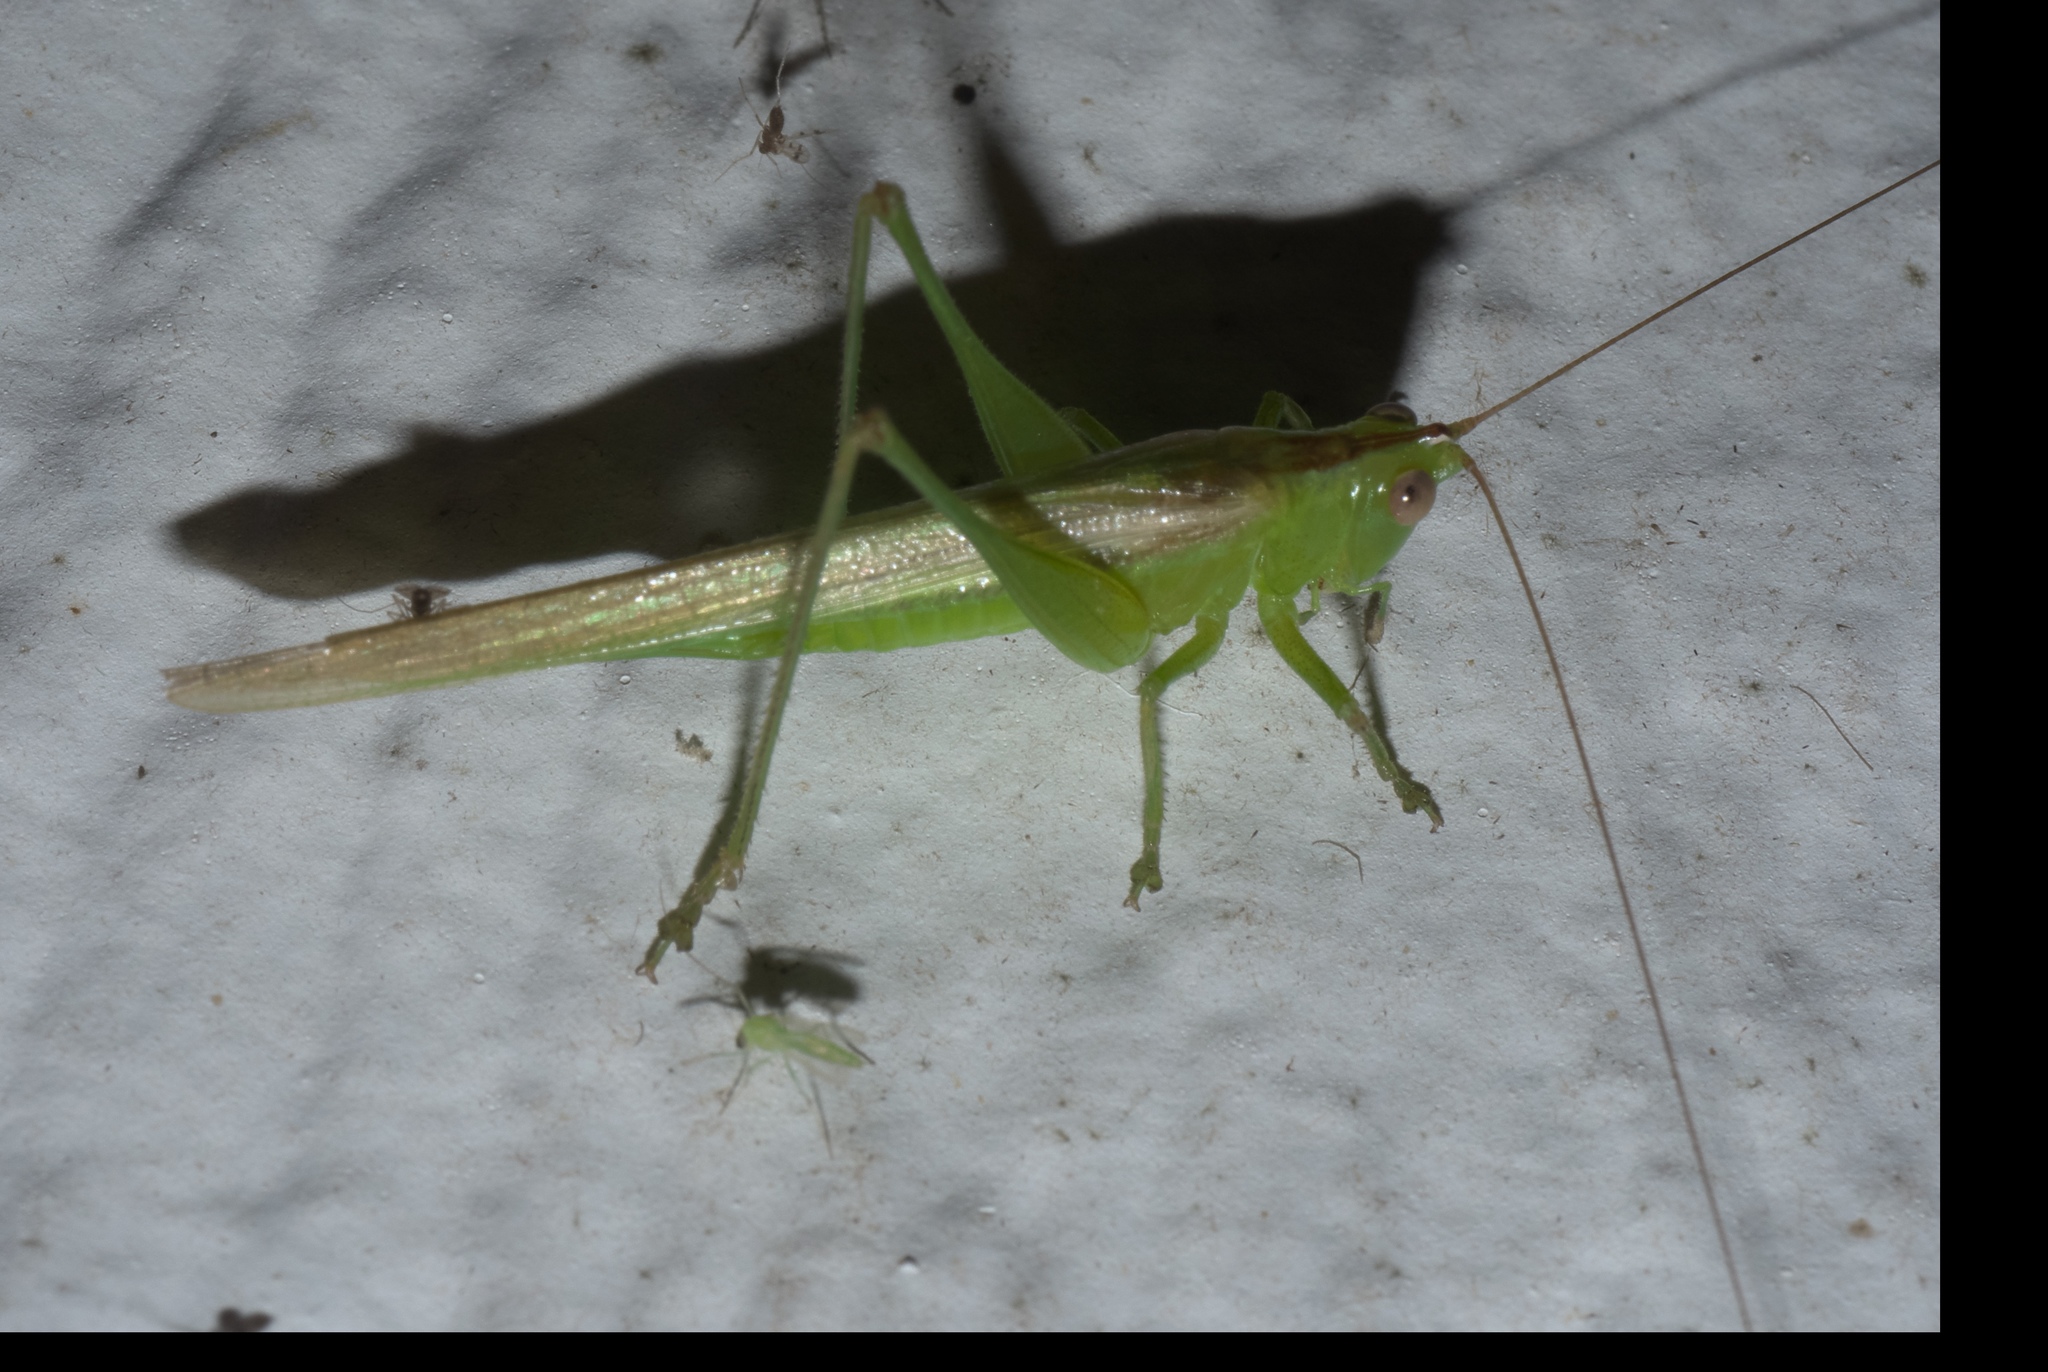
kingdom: Animalia
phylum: Arthropoda
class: Insecta
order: Orthoptera
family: Tettigoniidae
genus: Conocephalus
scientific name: Conocephalus fasciatus
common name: Slender meadow katydid
